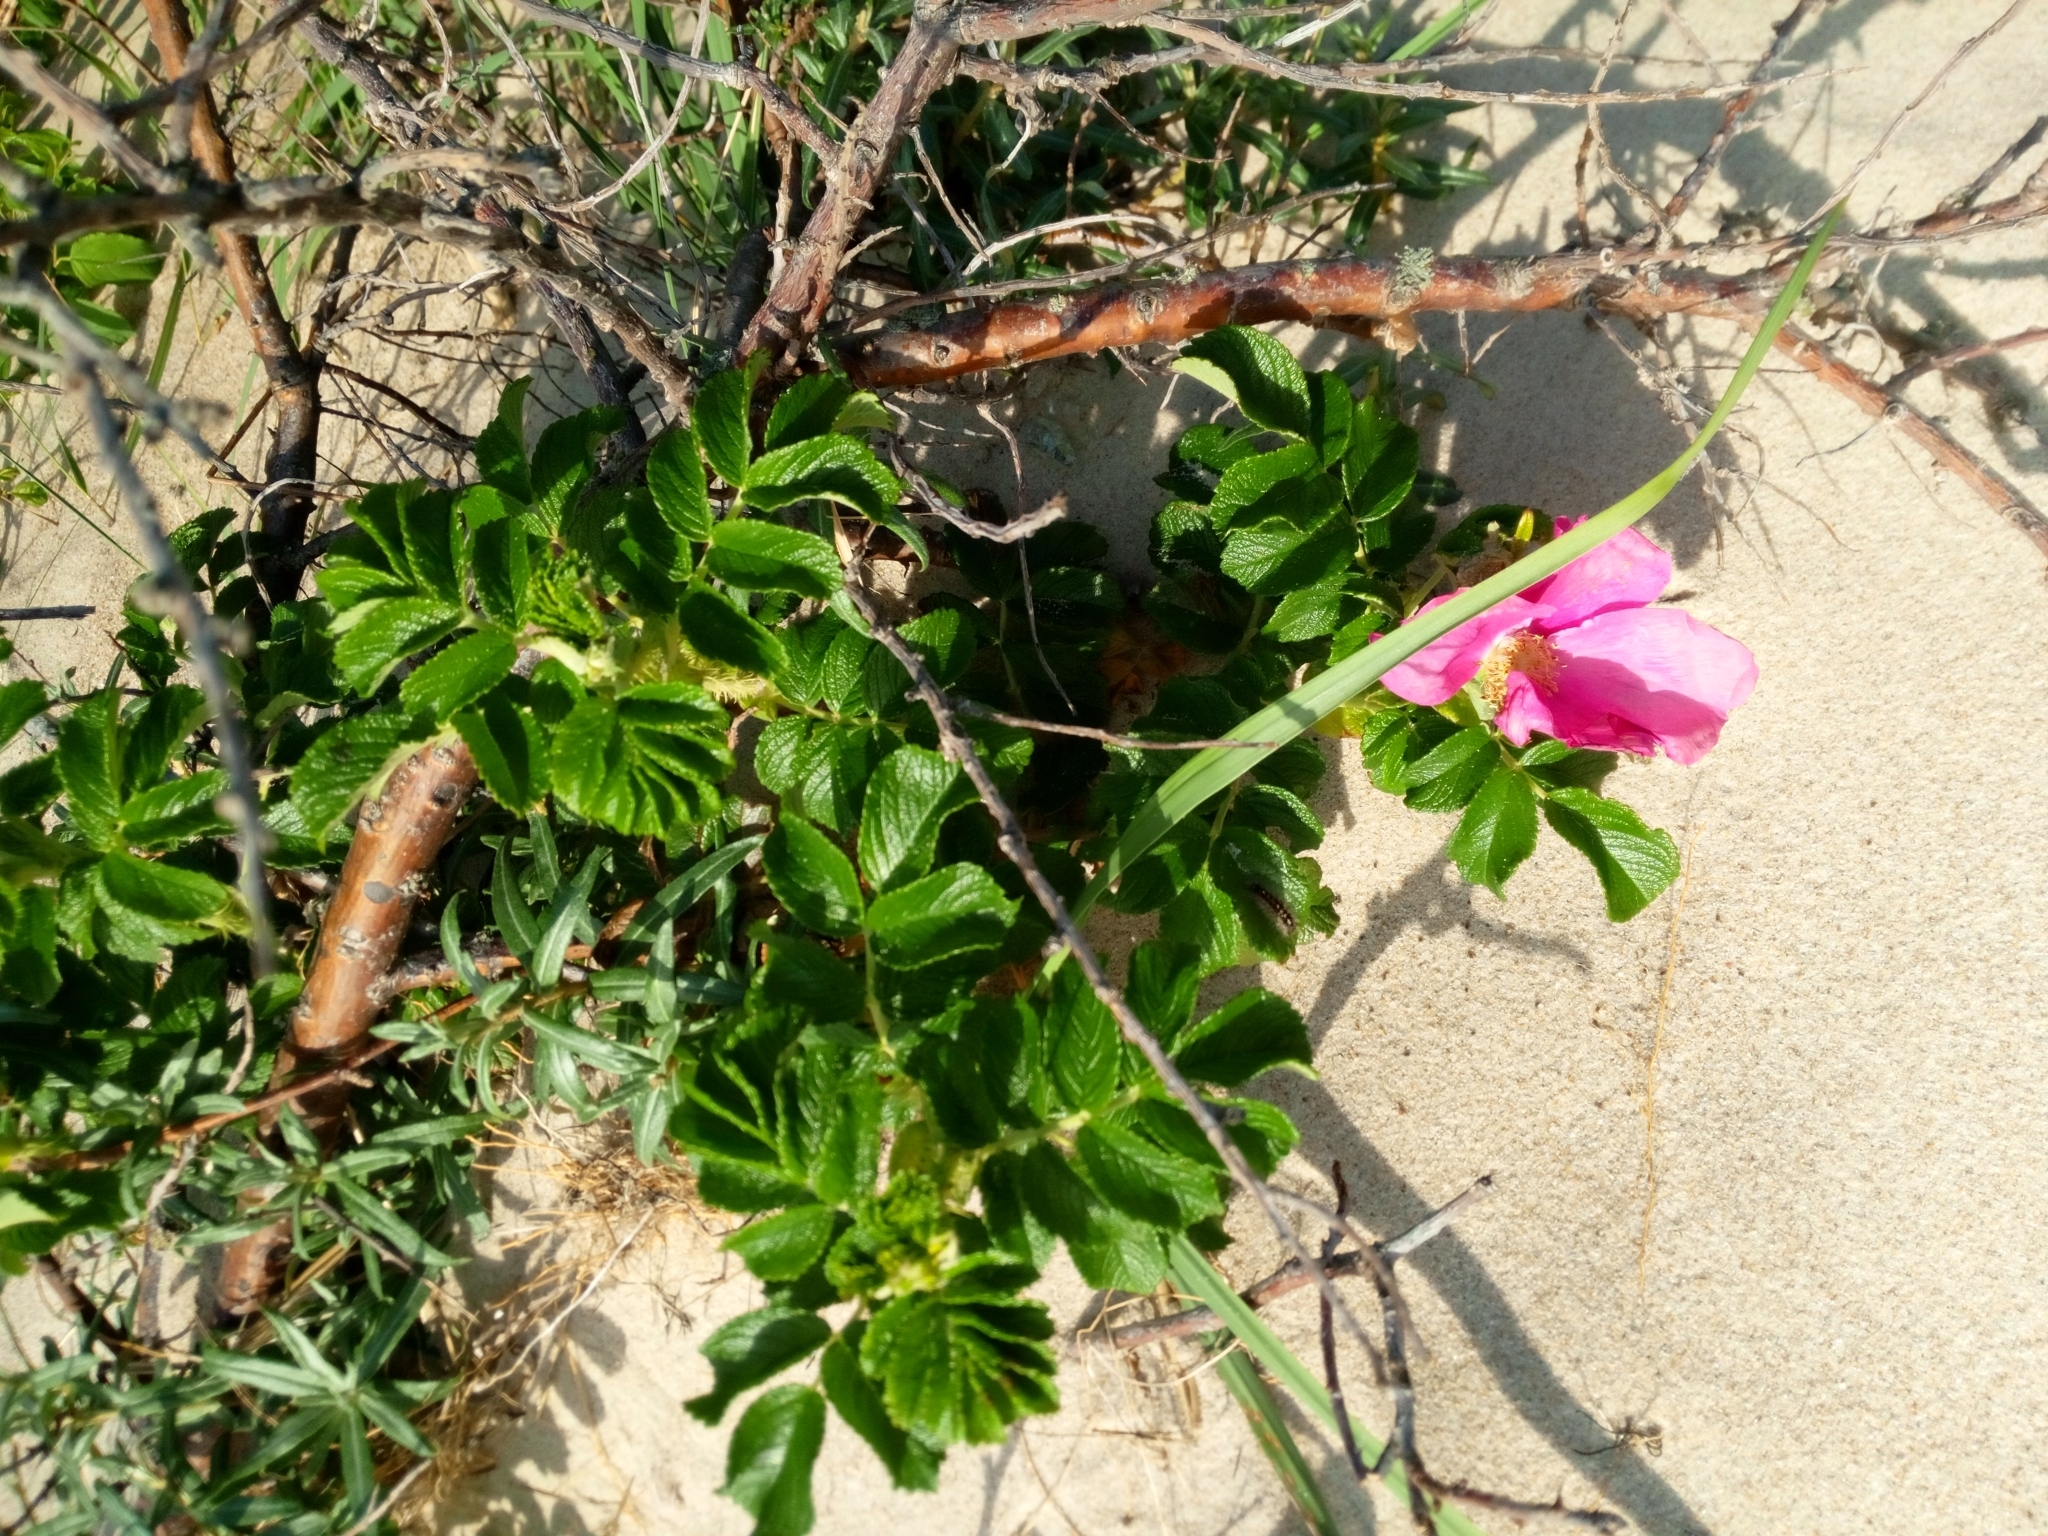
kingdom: Plantae
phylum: Tracheophyta
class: Magnoliopsida
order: Rosales
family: Rosaceae
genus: Rosa
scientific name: Rosa rugosa
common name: Japanese rose
